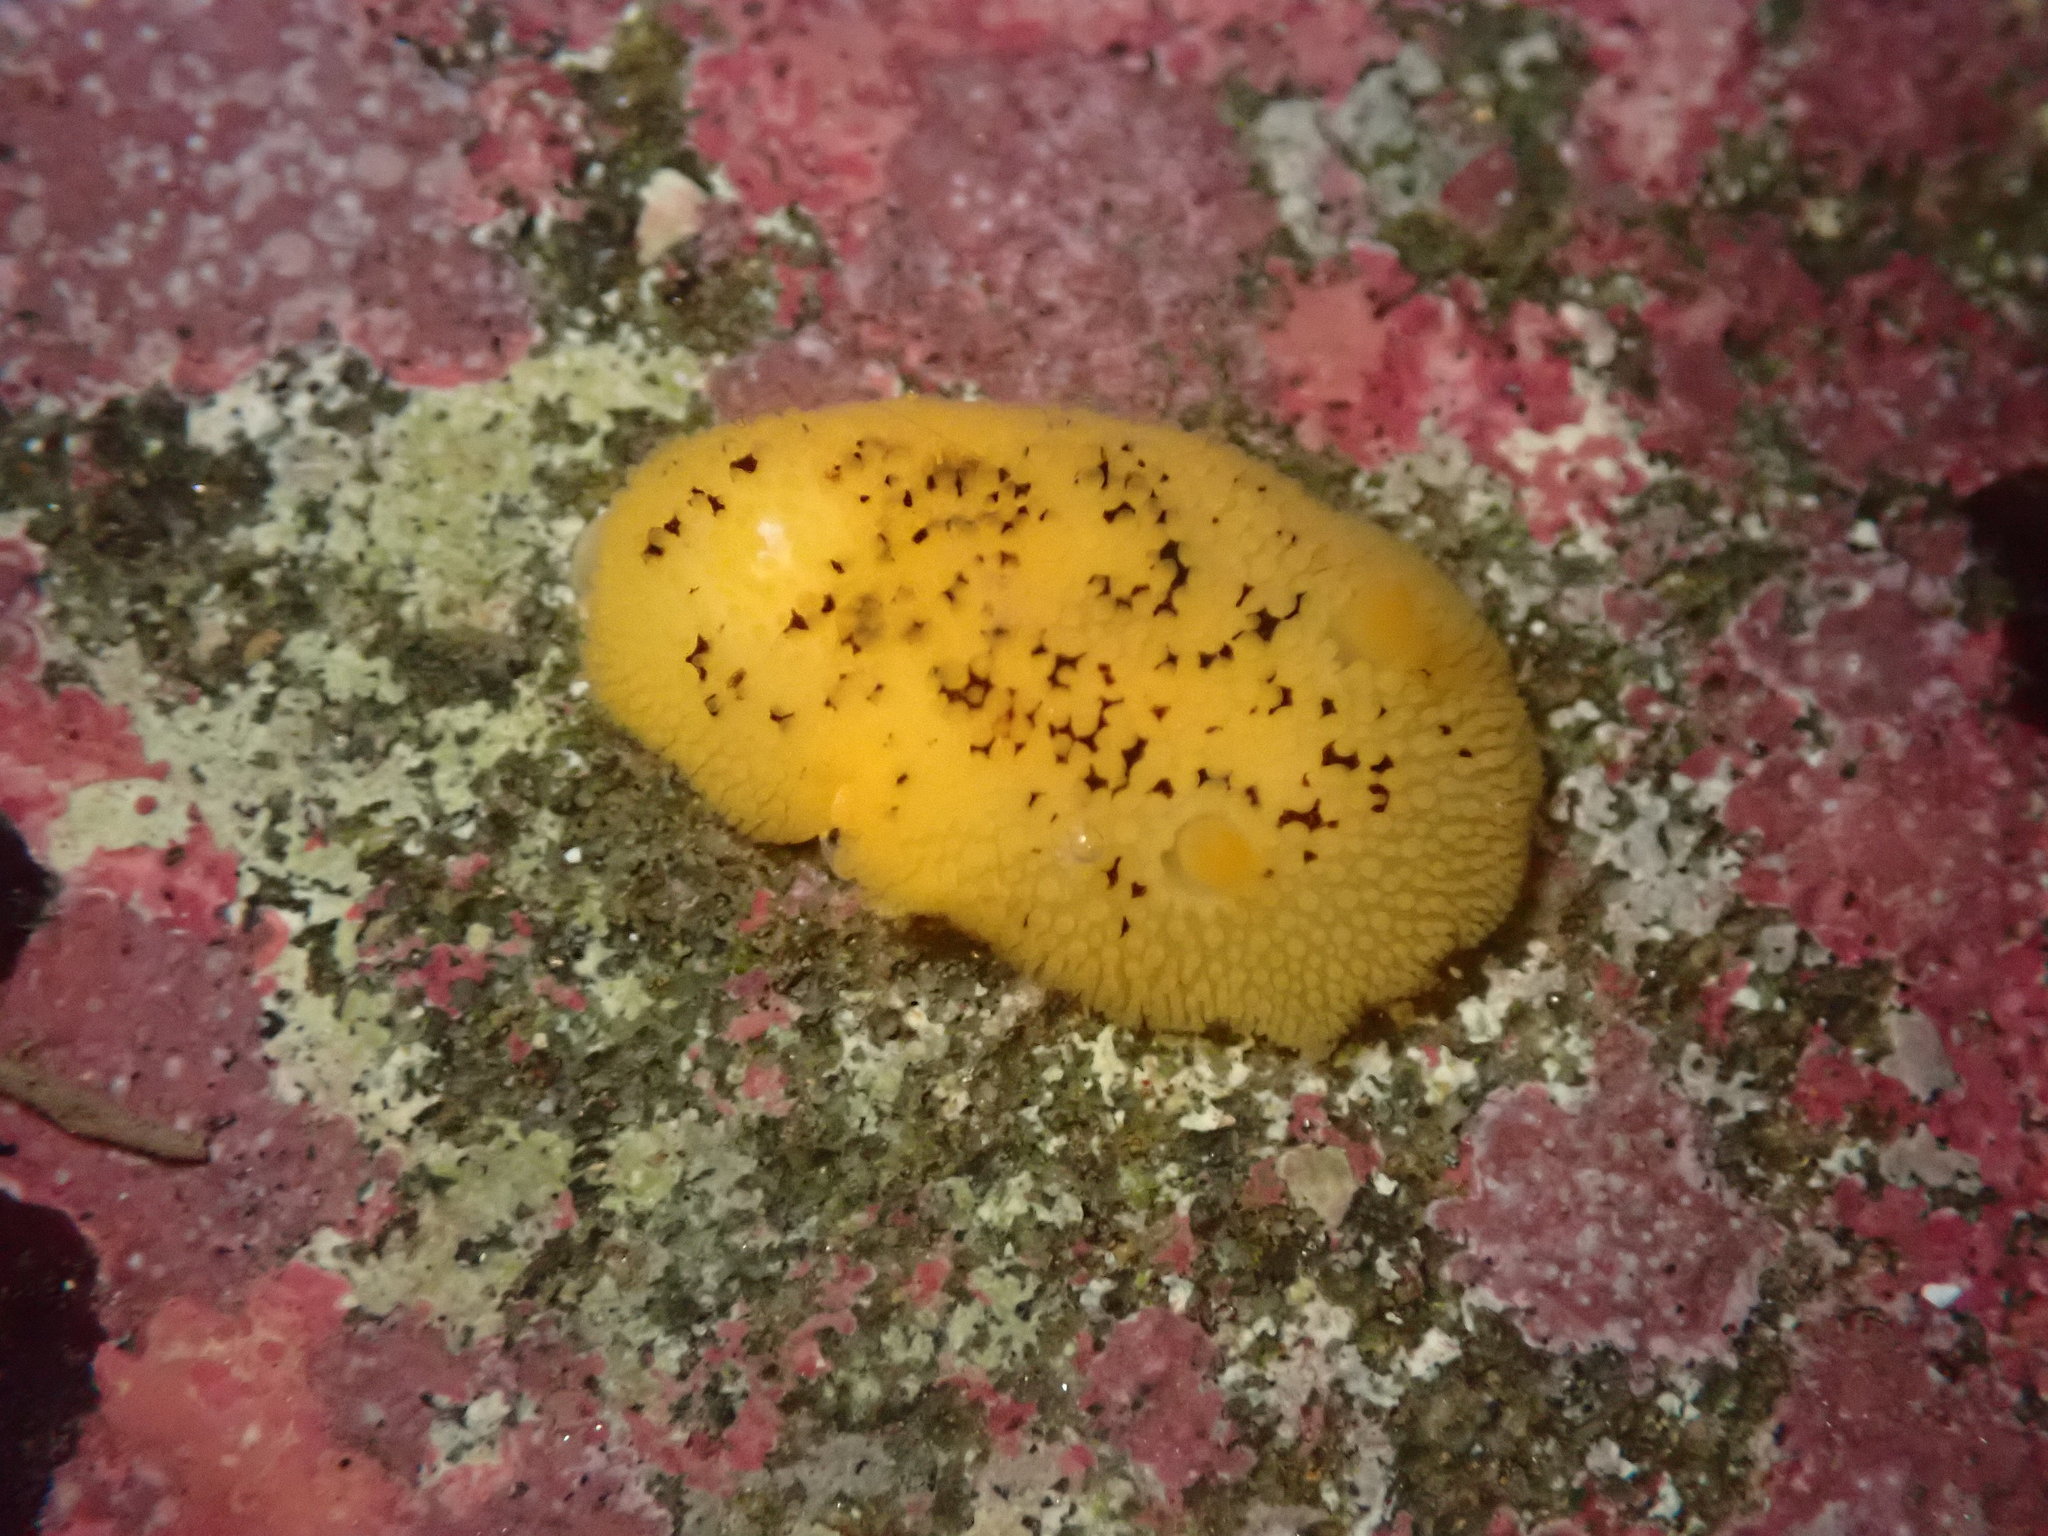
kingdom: Animalia
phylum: Mollusca
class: Gastropoda
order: Nudibranchia
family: Discodorididae
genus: Peltodoris
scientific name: Peltodoris nobilis
